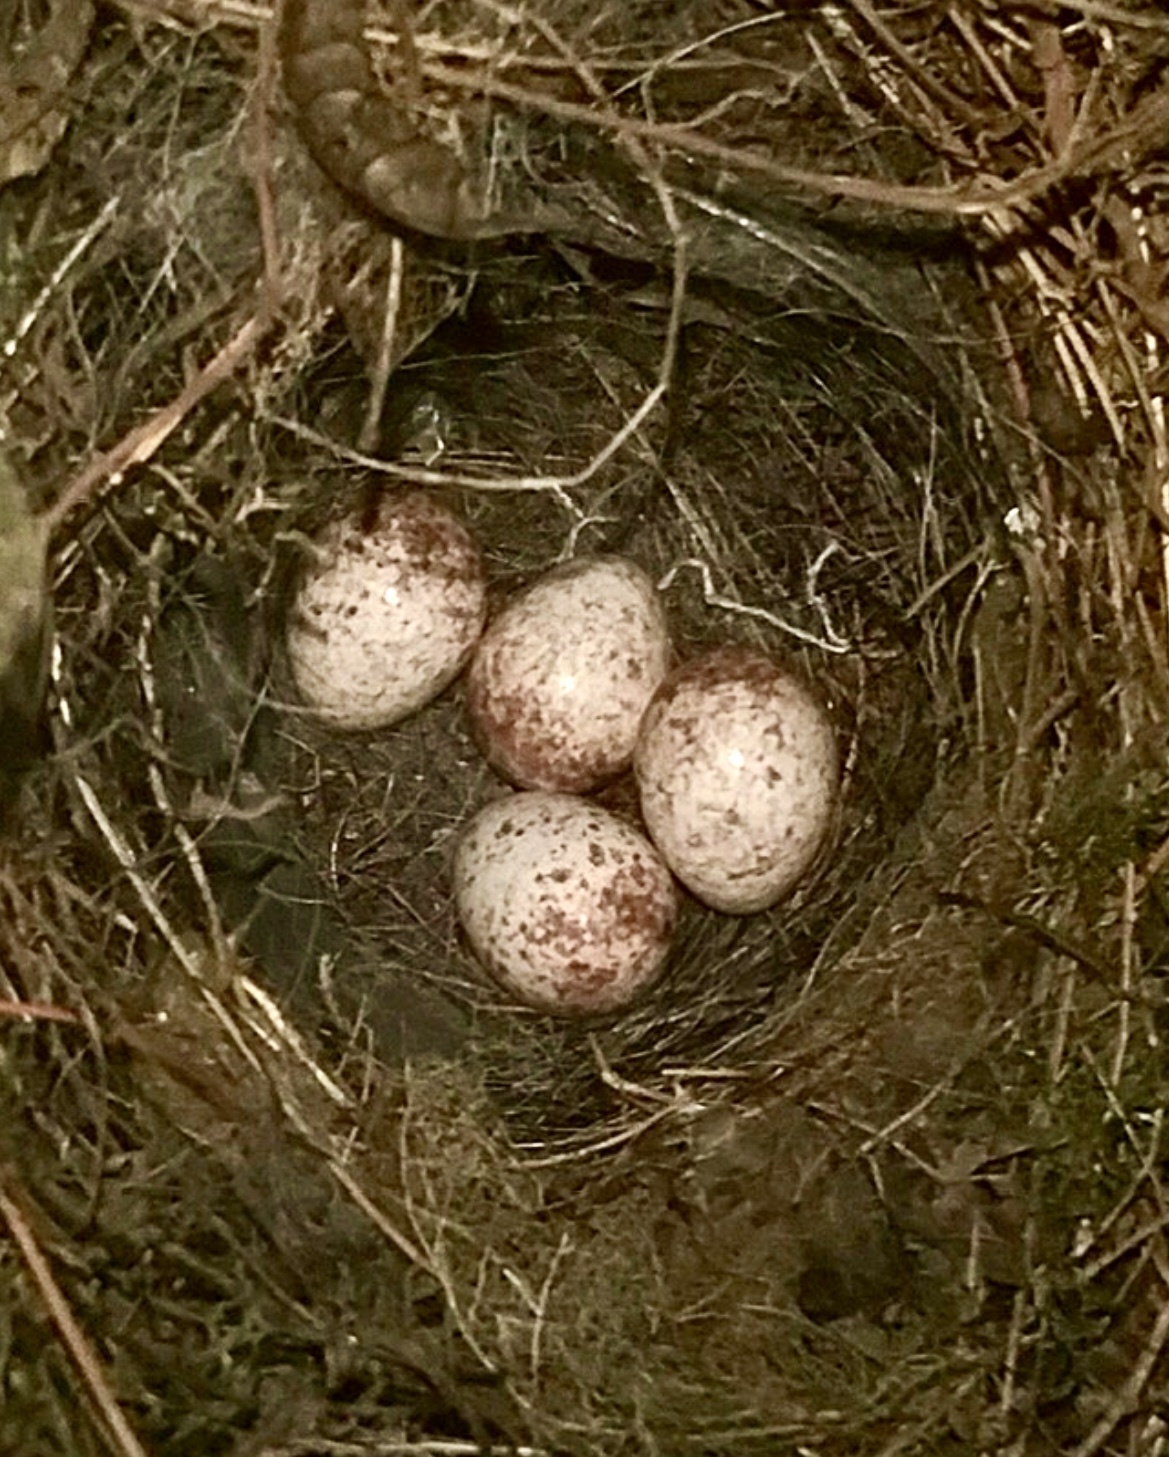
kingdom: Animalia
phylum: Chordata
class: Aves
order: Passeriformes
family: Troglodytidae
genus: Thryothorus
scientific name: Thryothorus ludovicianus
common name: Carolina wren
